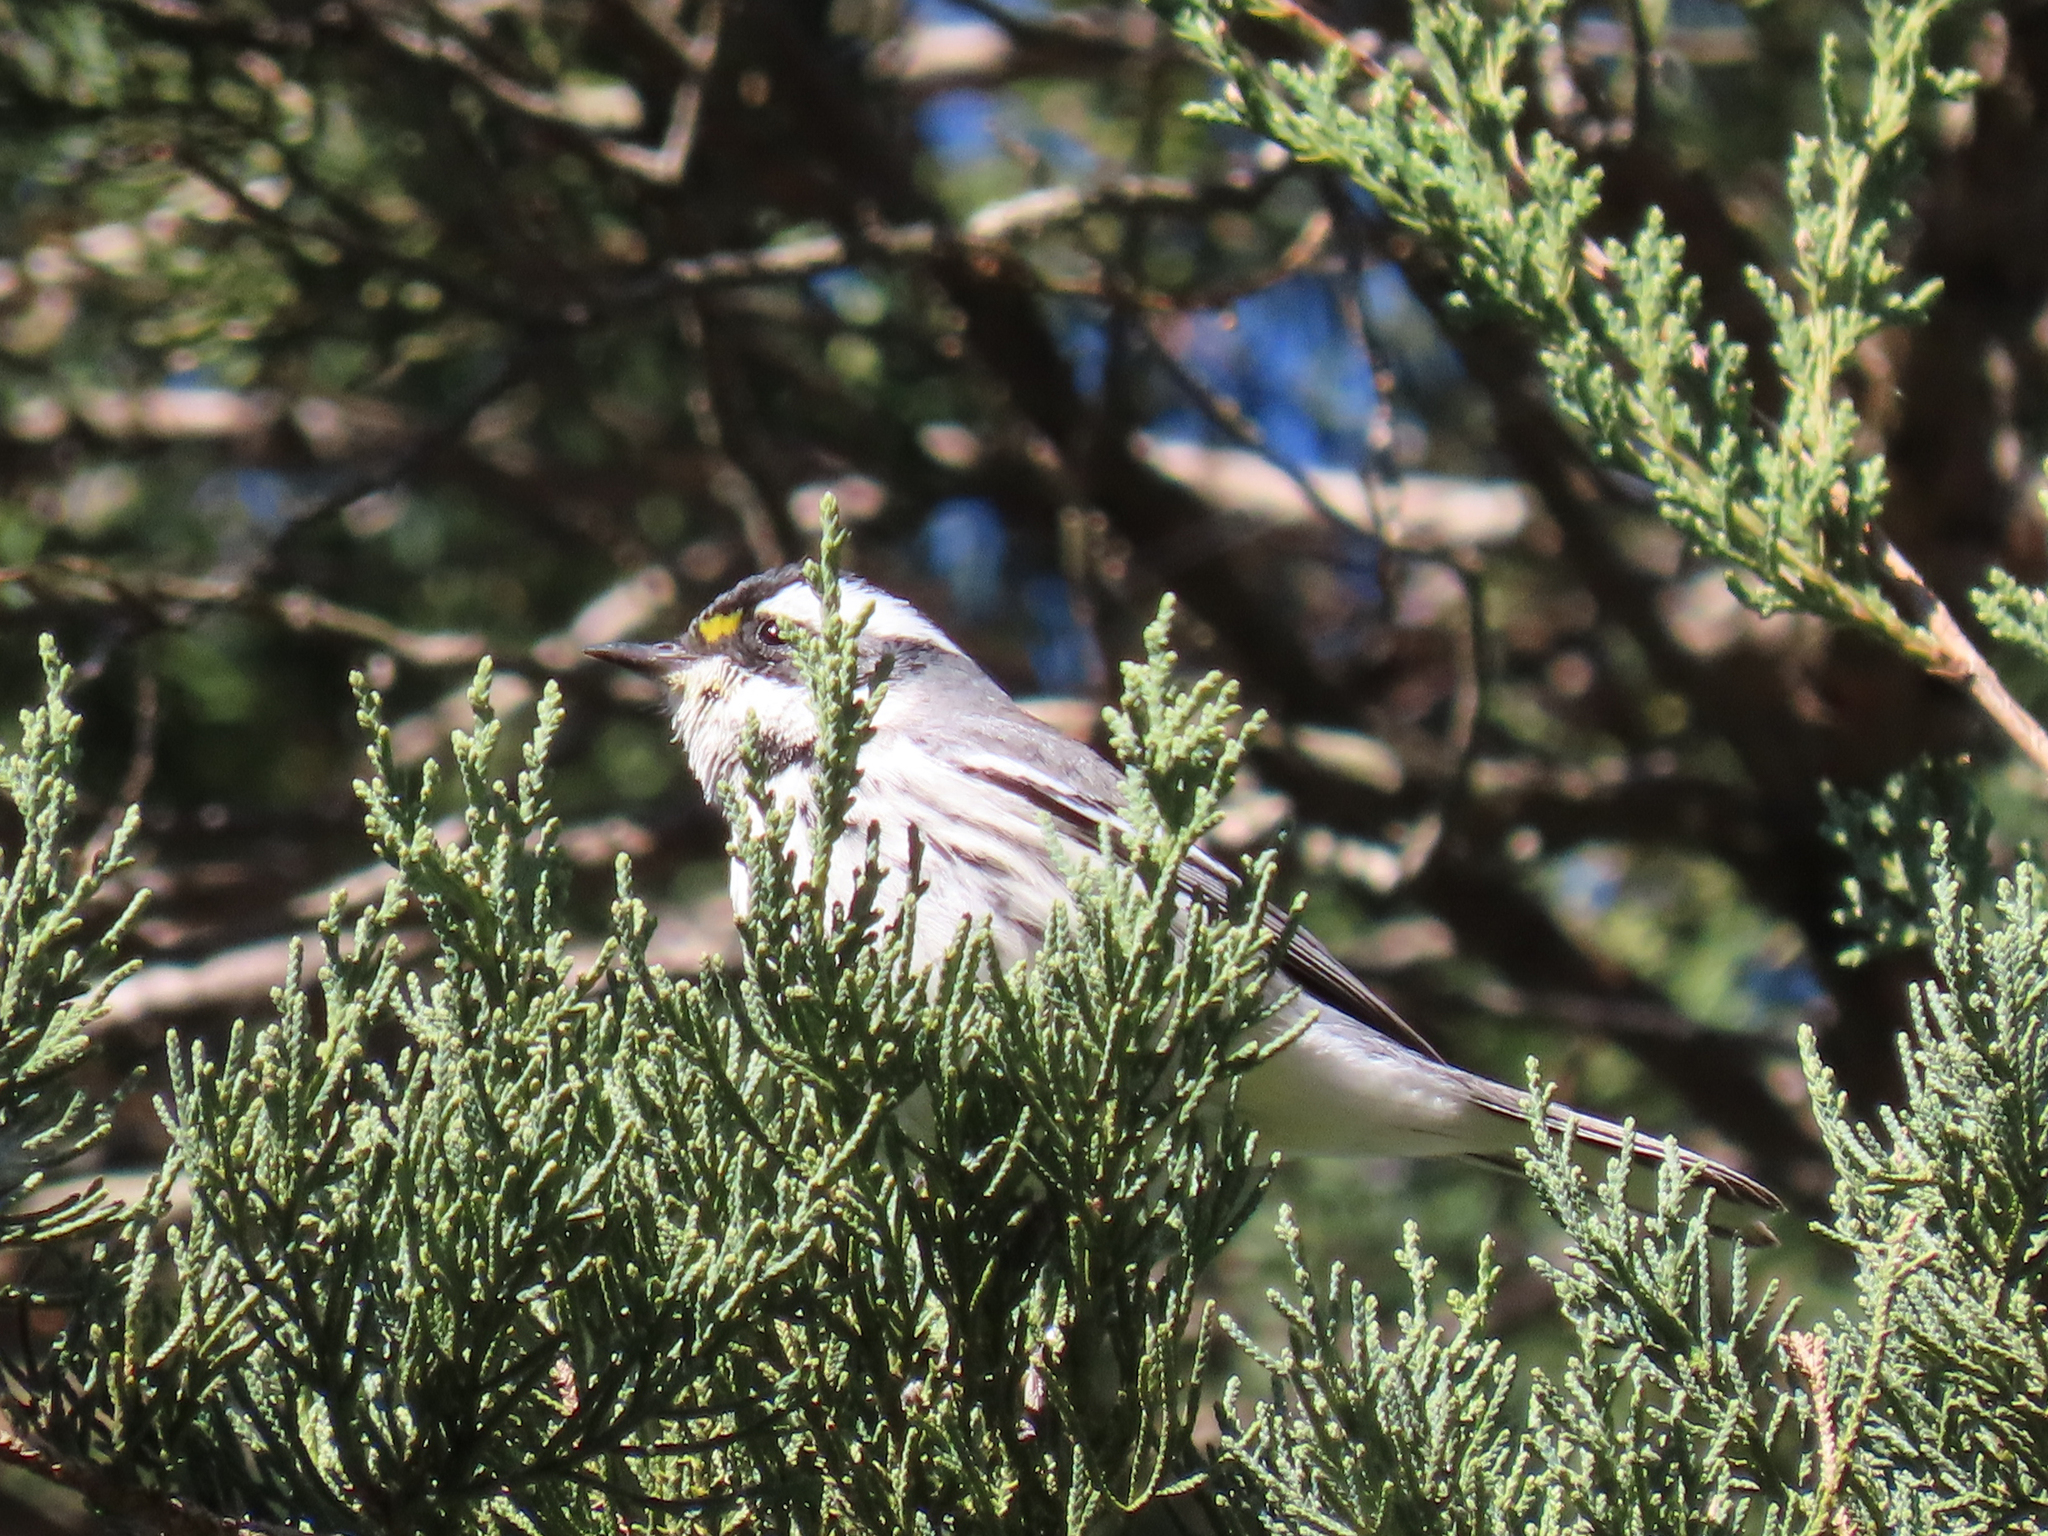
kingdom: Animalia
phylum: Chordata
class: Aves
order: Passeriformes
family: Parulidae
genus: Setophaga
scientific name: Setophaga nigrescens
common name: Black-throated gray warbler
